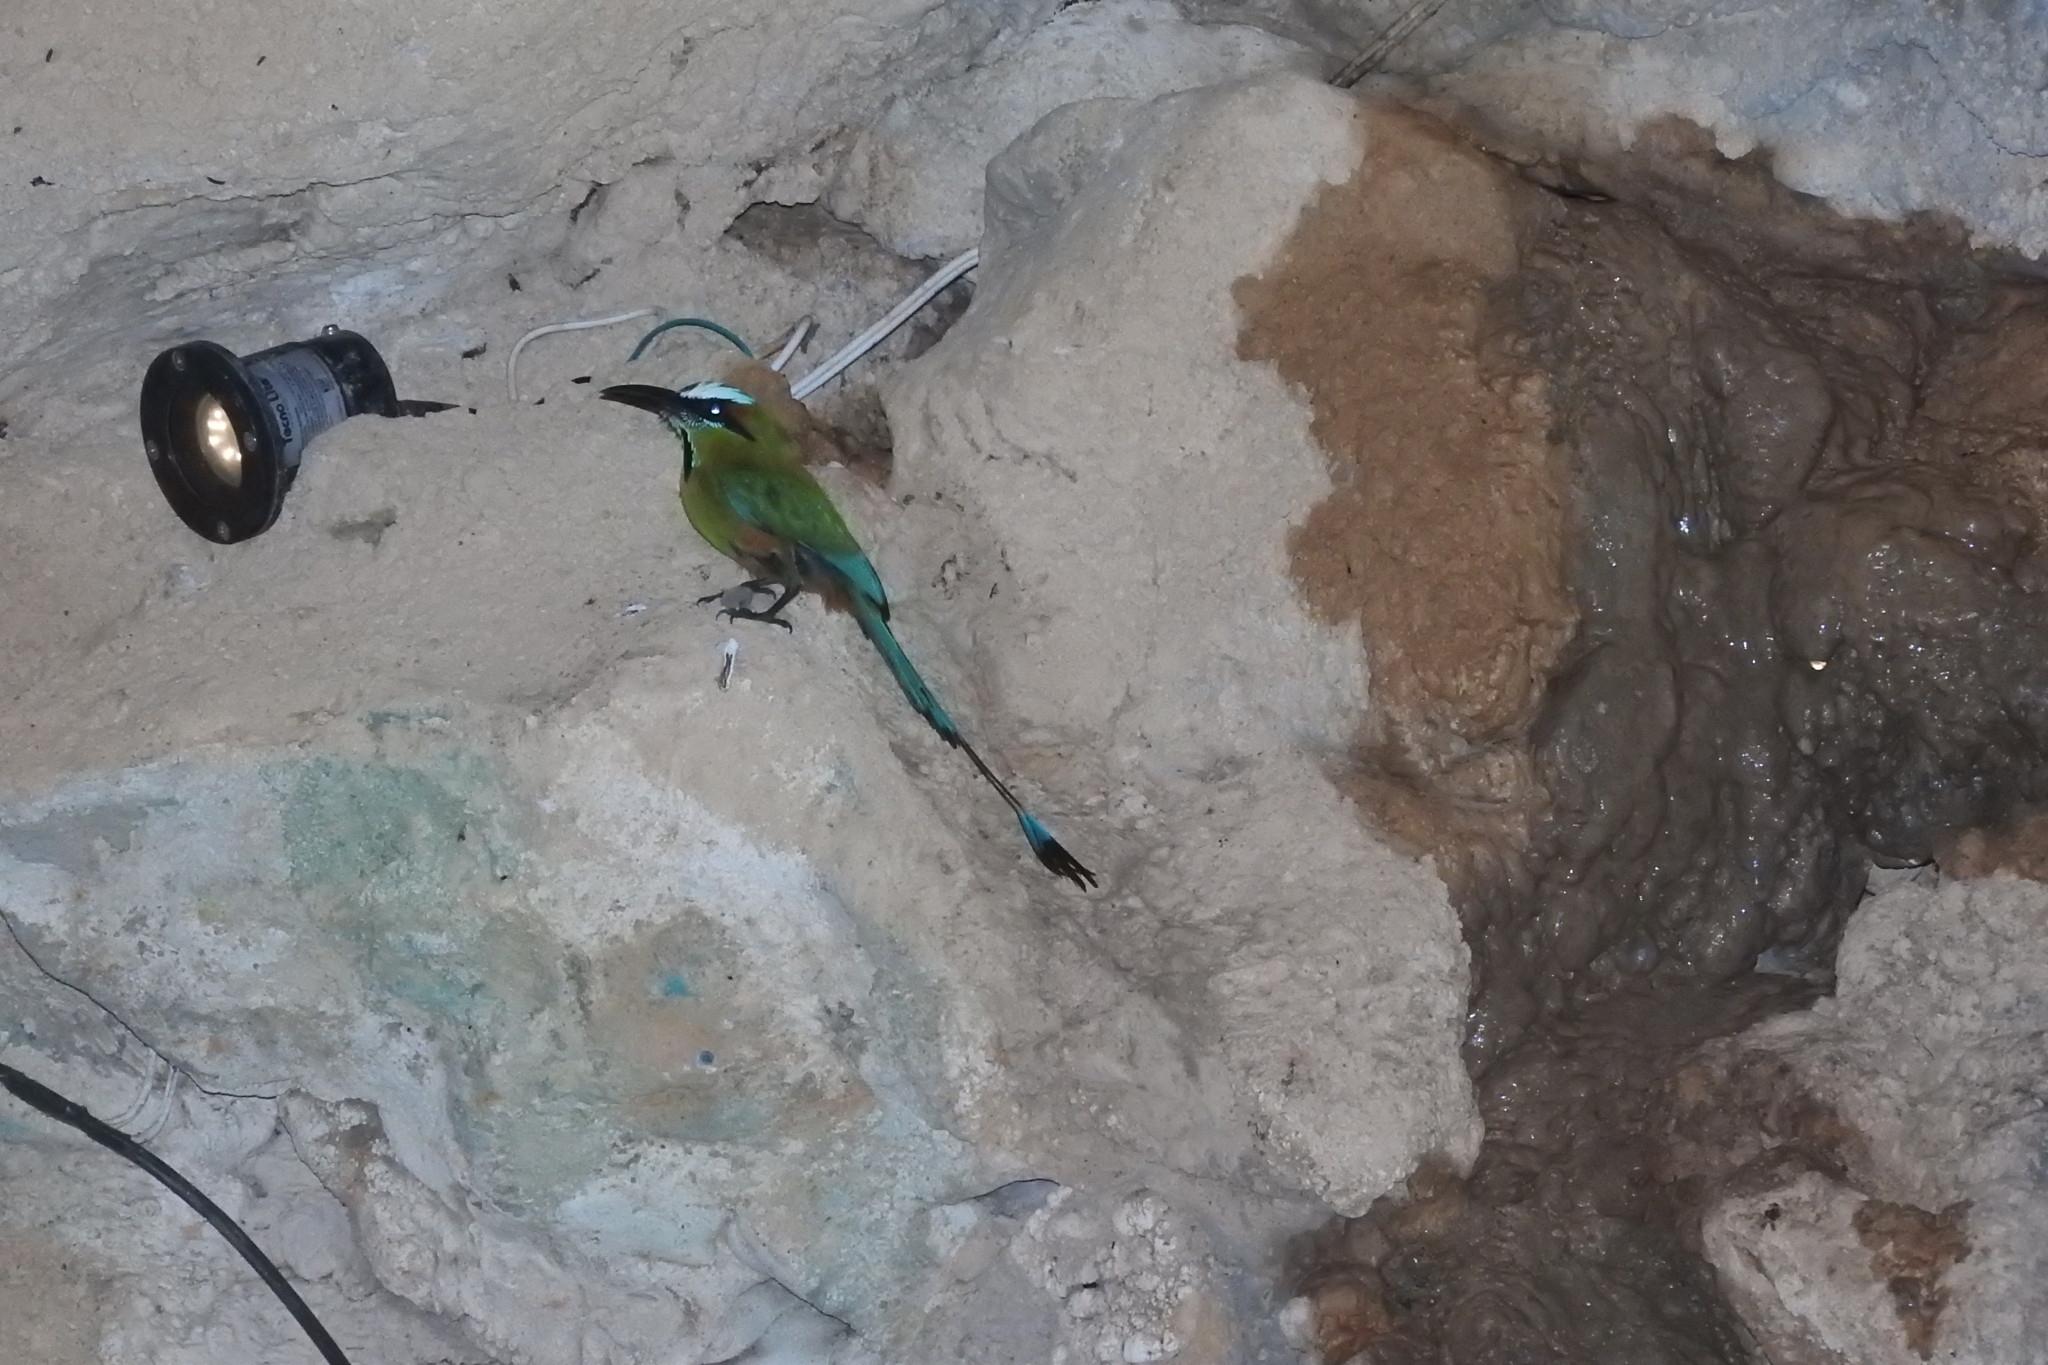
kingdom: Animalia
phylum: Chordata
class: Aves
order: Coraciiformes
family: Momotidae
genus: Eumomota
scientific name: Eumomota superciliosa
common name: Turquoise-browed motmot
